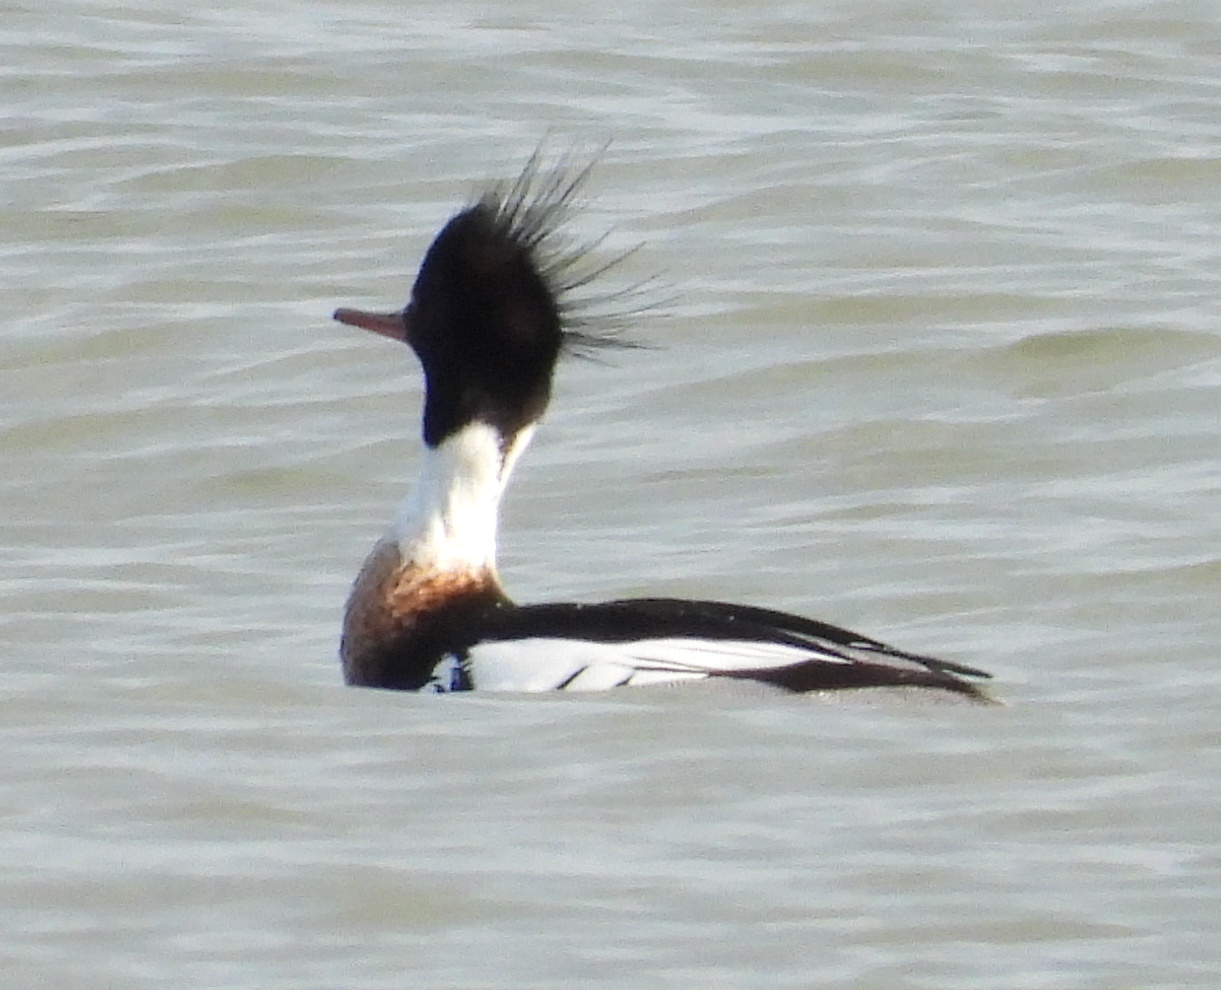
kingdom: Animalia
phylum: Chordata
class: Aves
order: Anseriformes
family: Anatidae
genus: Mergus
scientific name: Mergus serrator
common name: Red-breasted merganser
